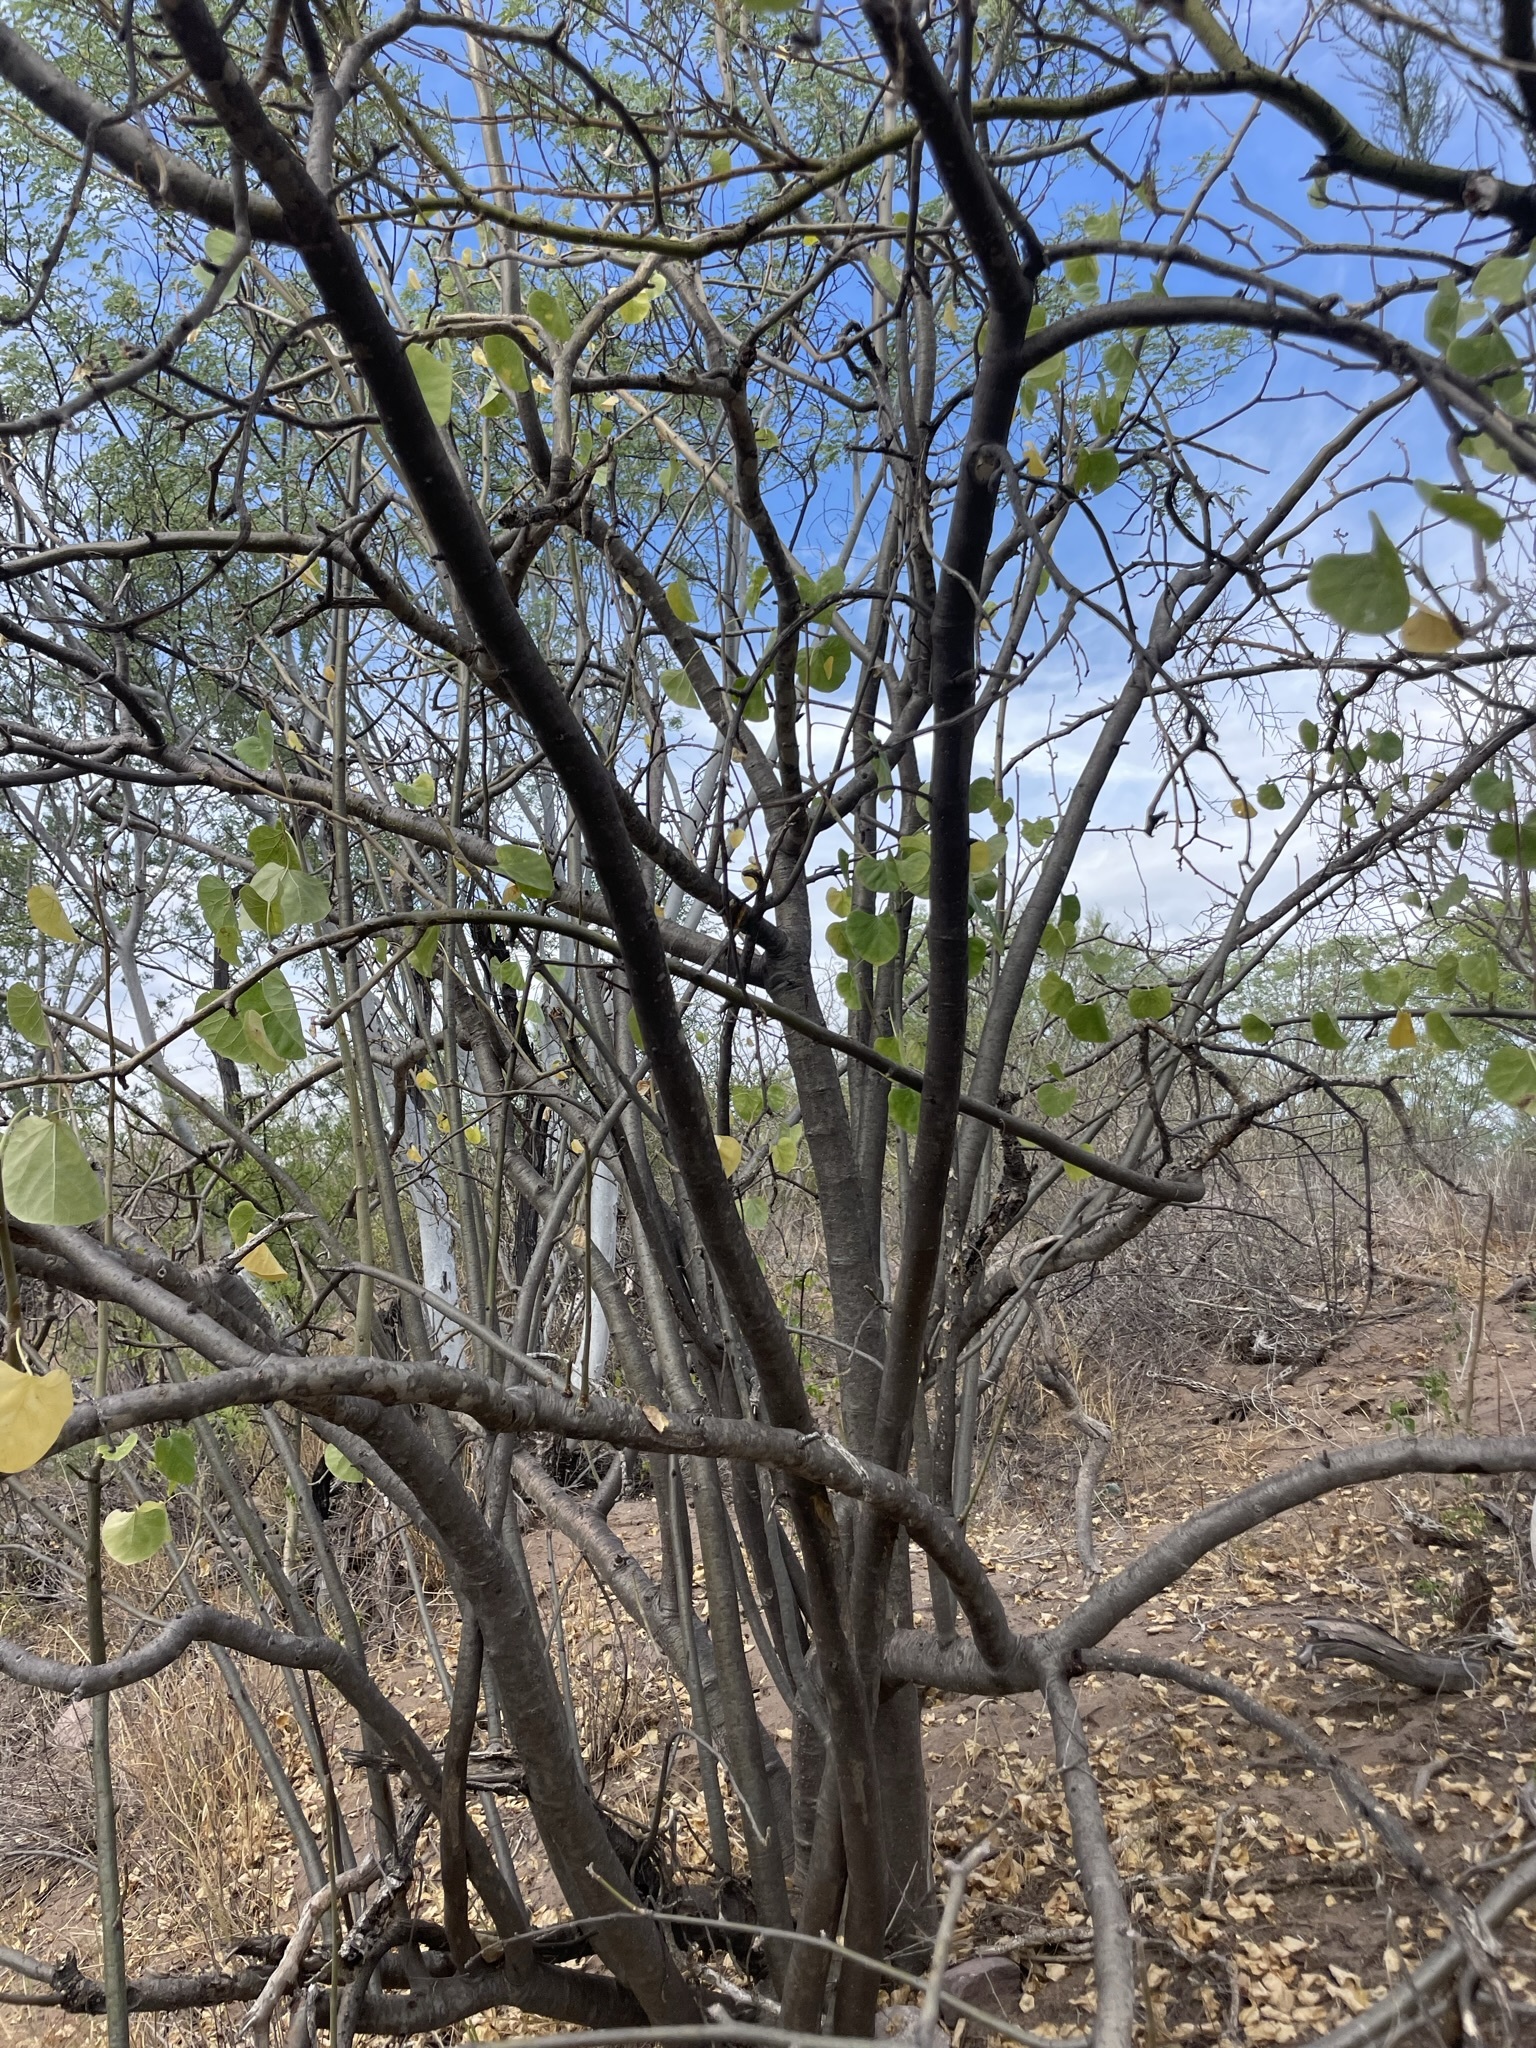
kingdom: Plantae
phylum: Tracheophyta
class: Magnoliopsida
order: Malpighiales
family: Euphorbiaceae
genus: Jatropha
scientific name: Jatropha cinerea
